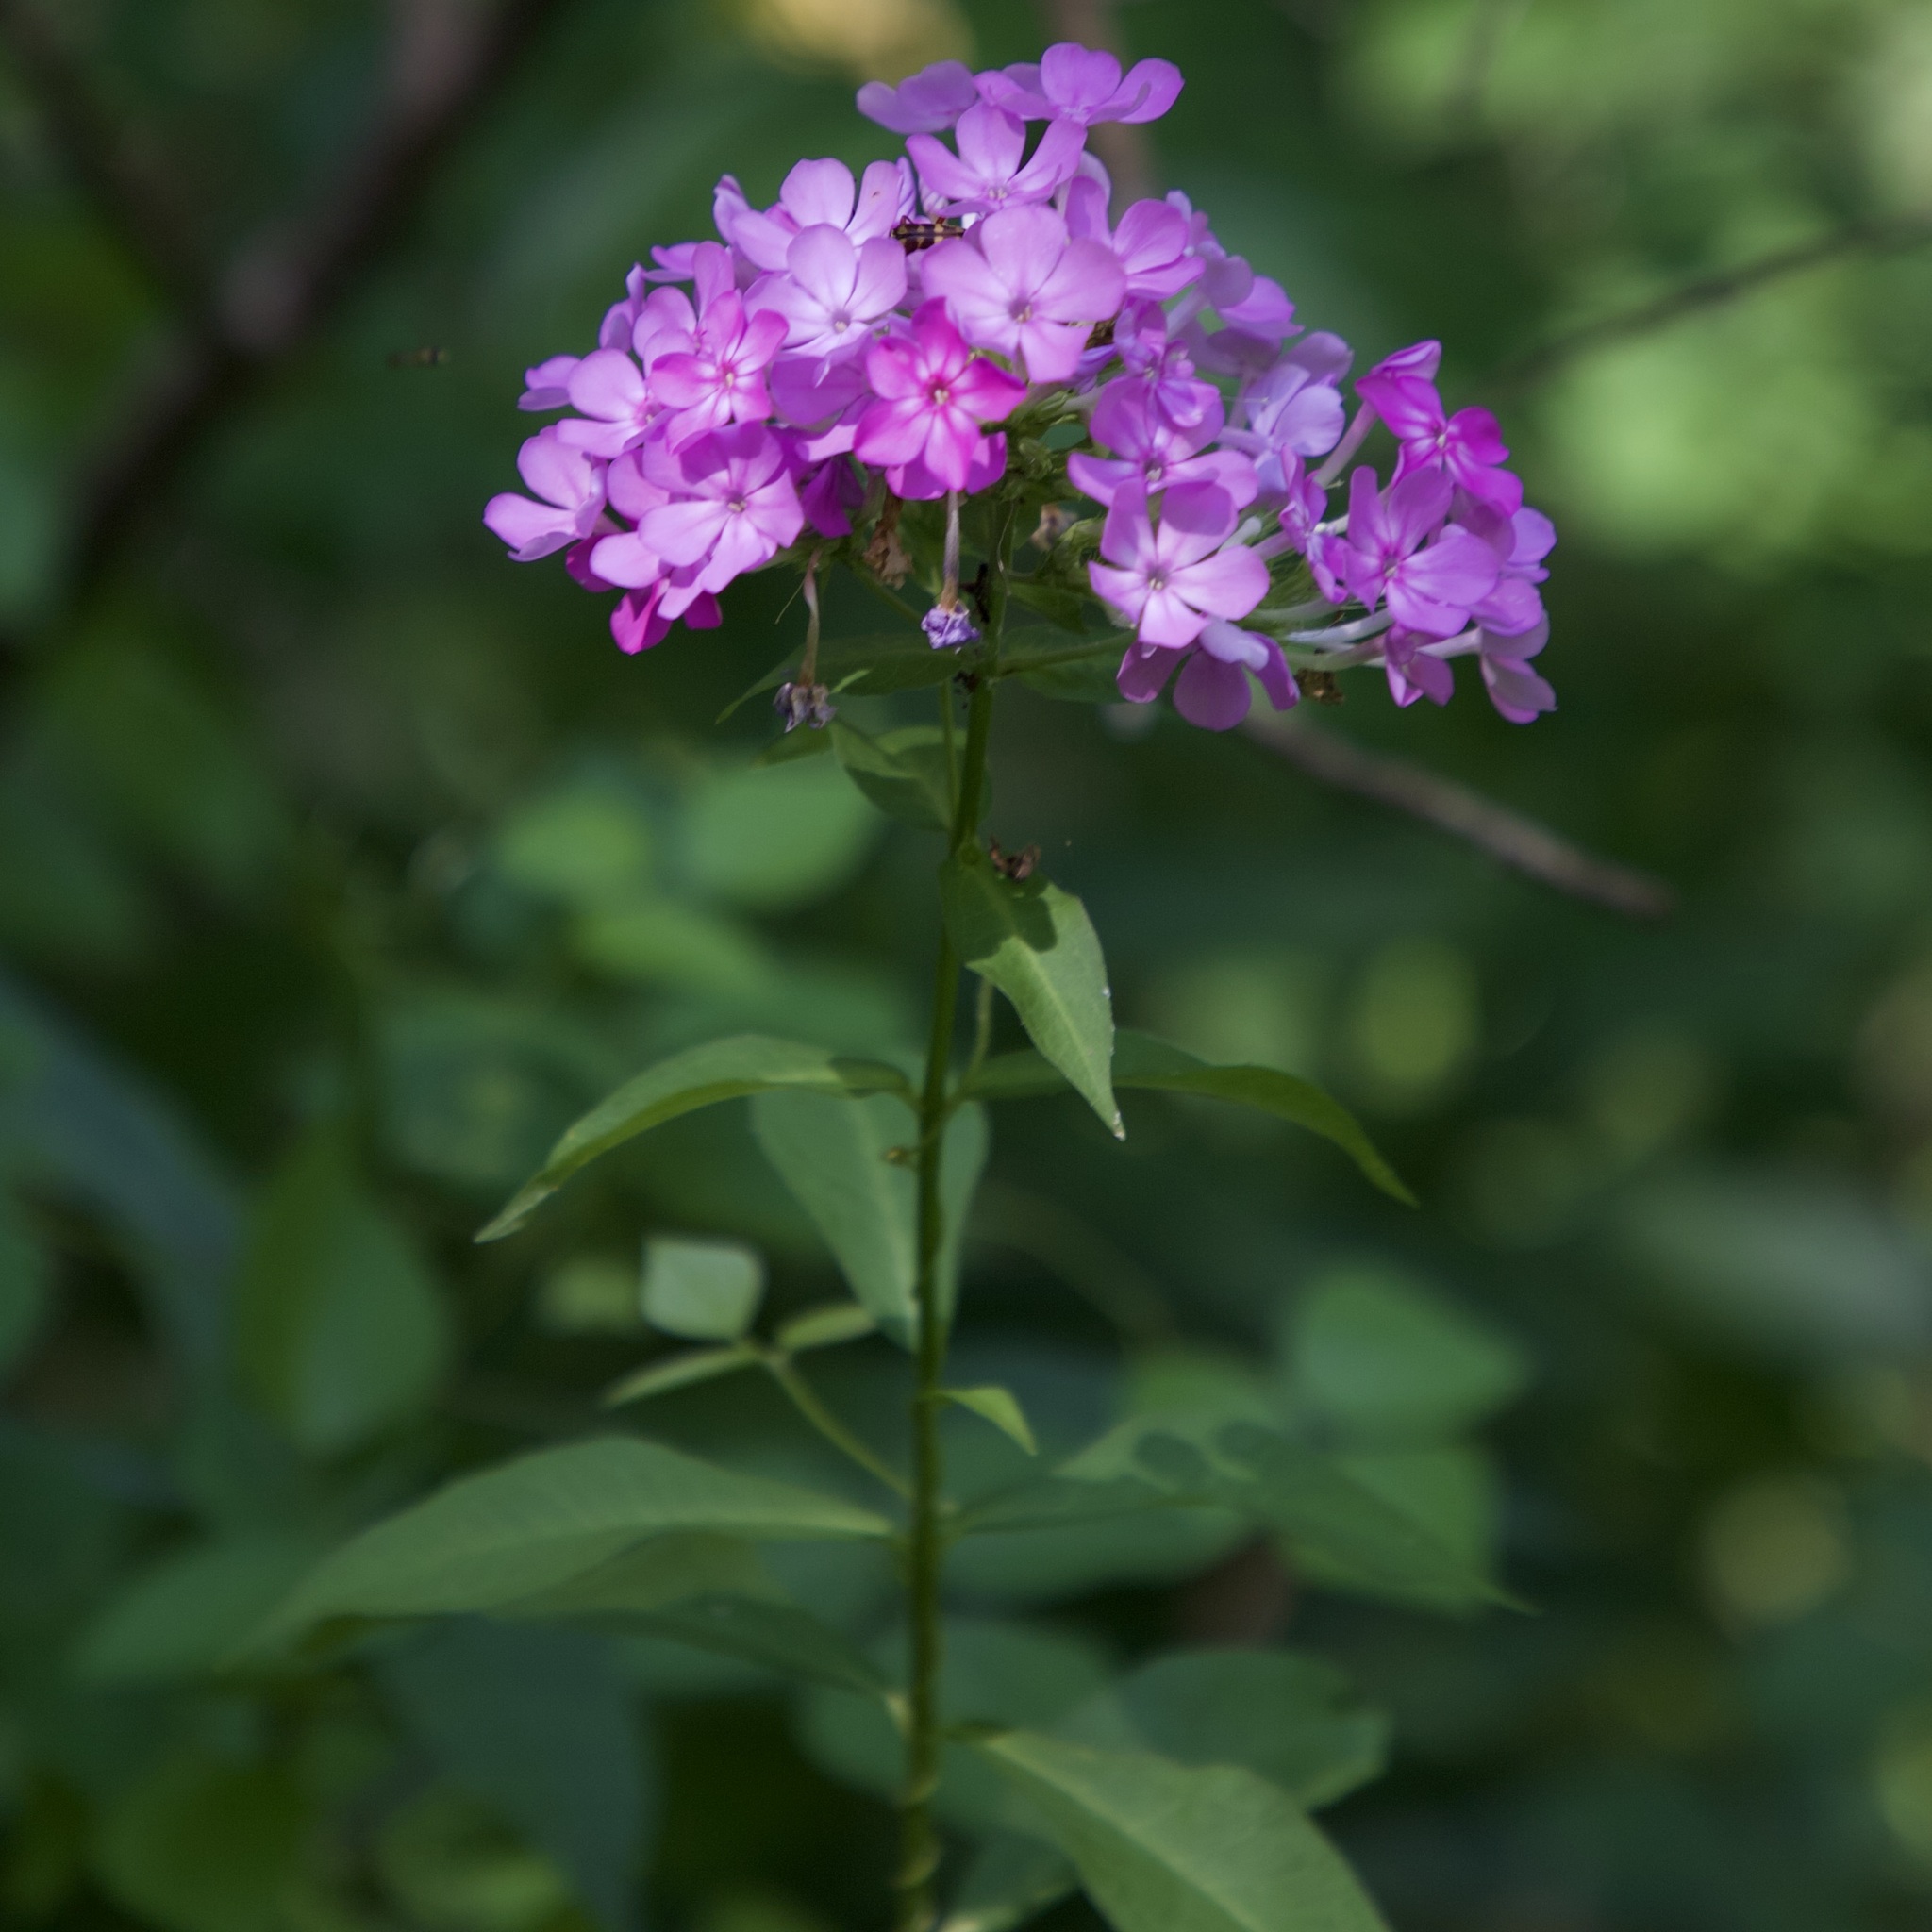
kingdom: Plantae
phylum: Tracheophyta
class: Magnoliopsida
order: Ericales
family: Polemoniaceae
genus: Phlox
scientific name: Phlox paniculata
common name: Fall phlox
